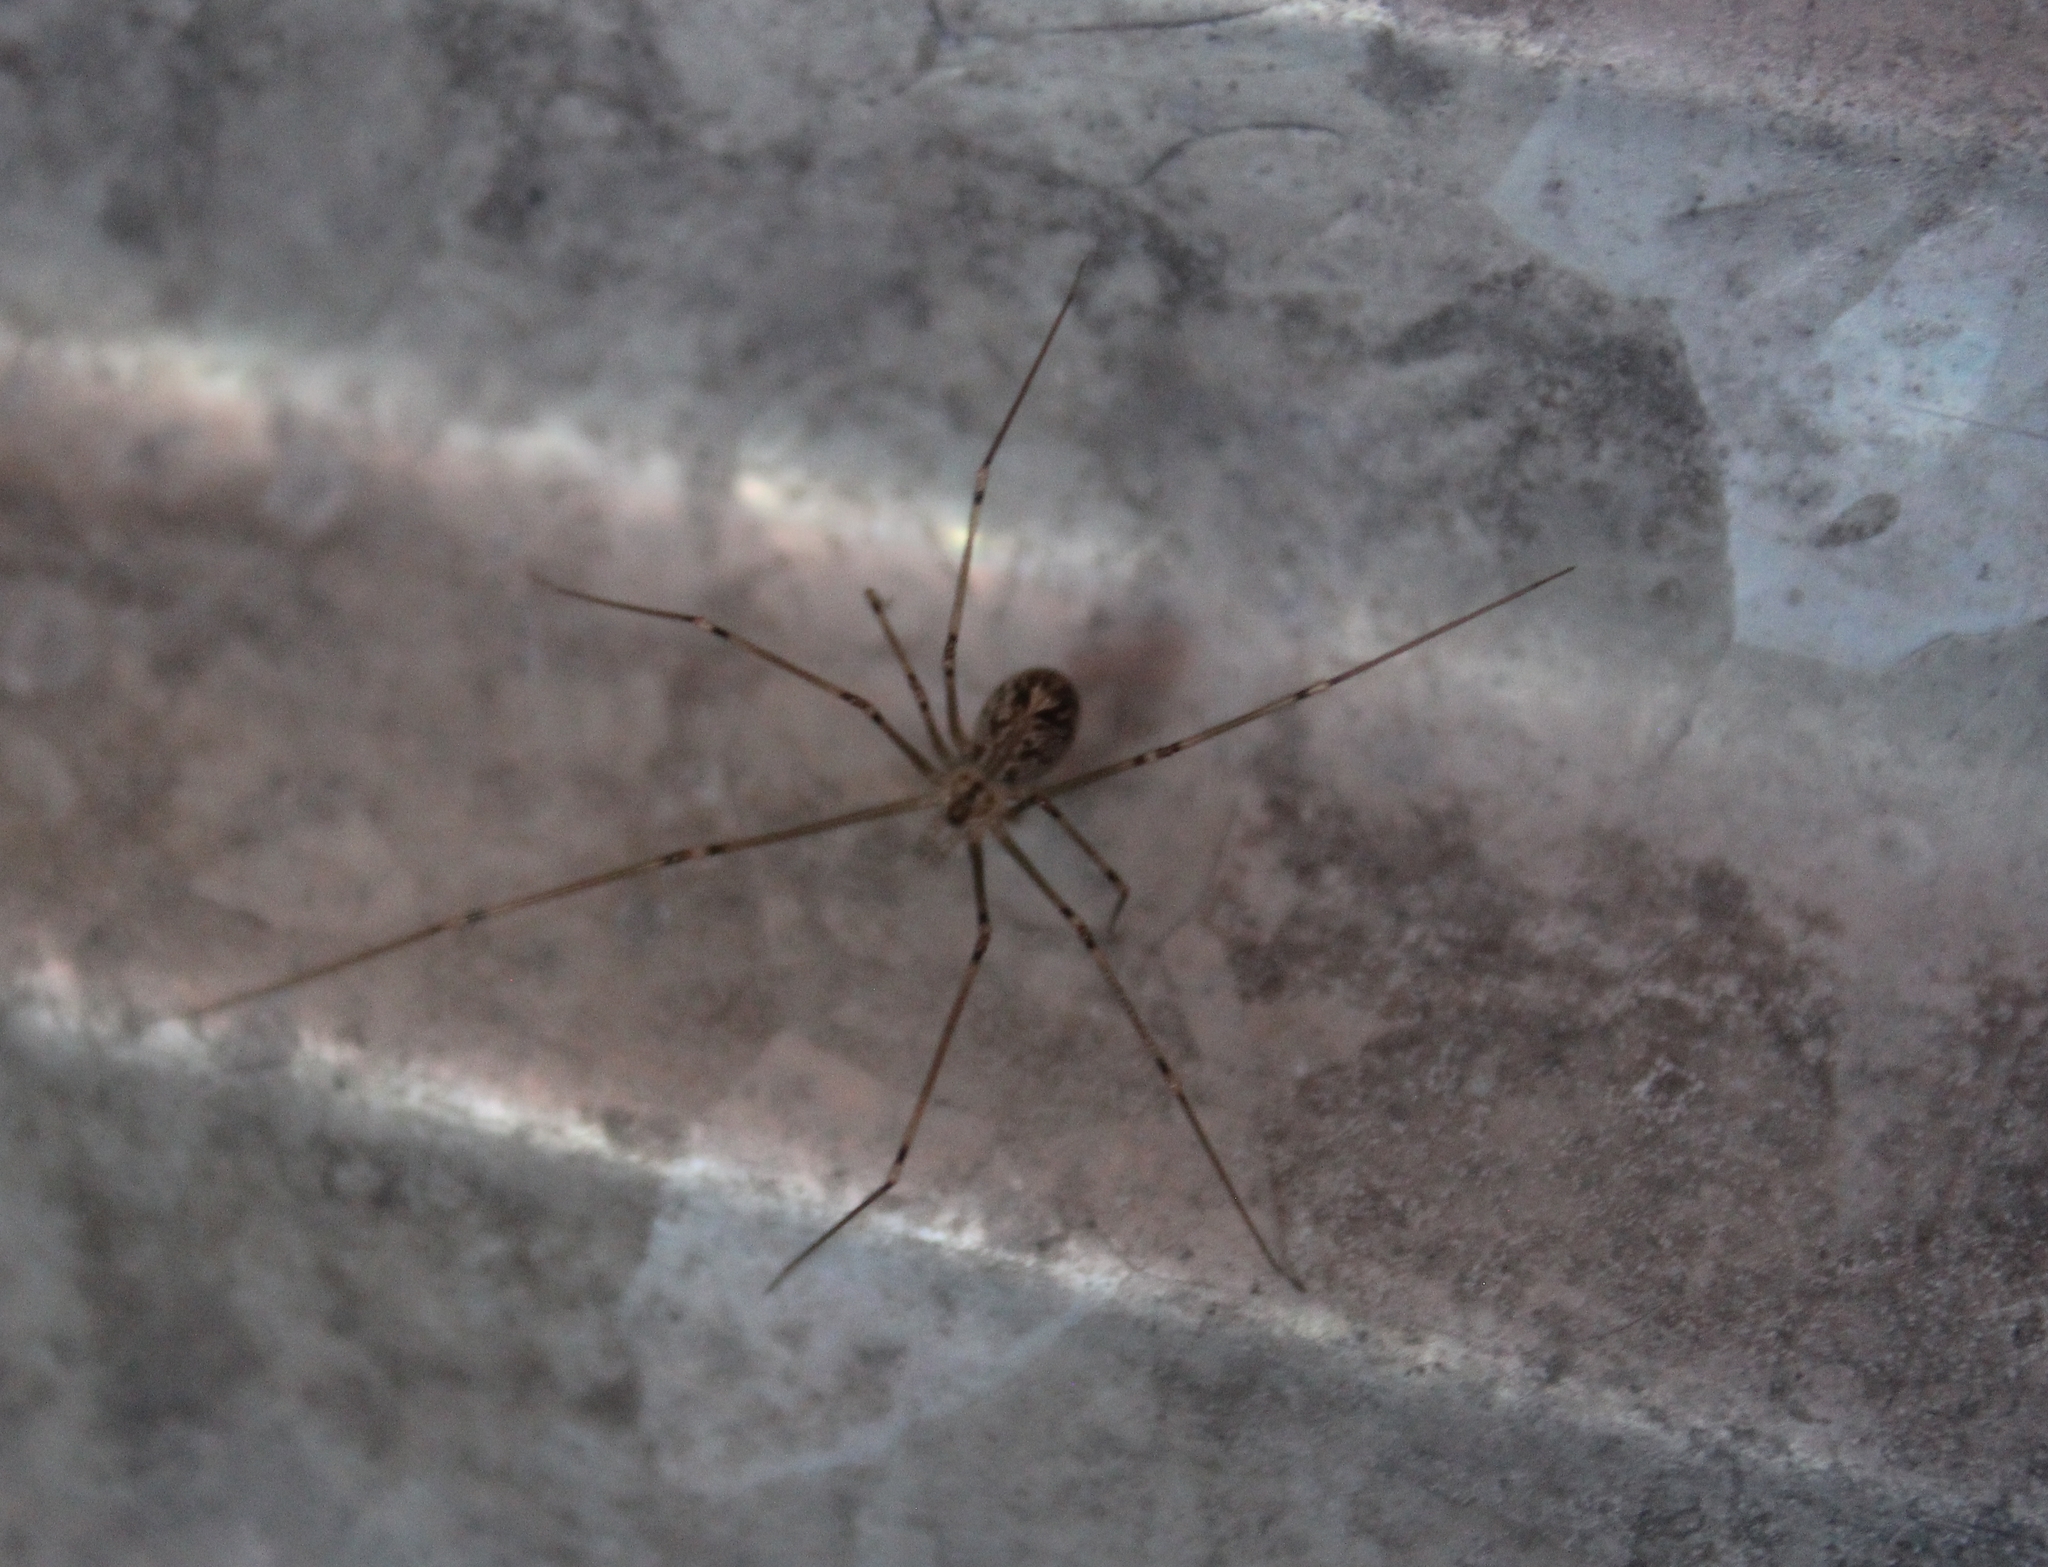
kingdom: Animalia
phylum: Arthropoda
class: Arachnida
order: Araneae
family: Pholcidae
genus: Physocyclus
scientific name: Physocyclus globosus
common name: Cellar spiders
